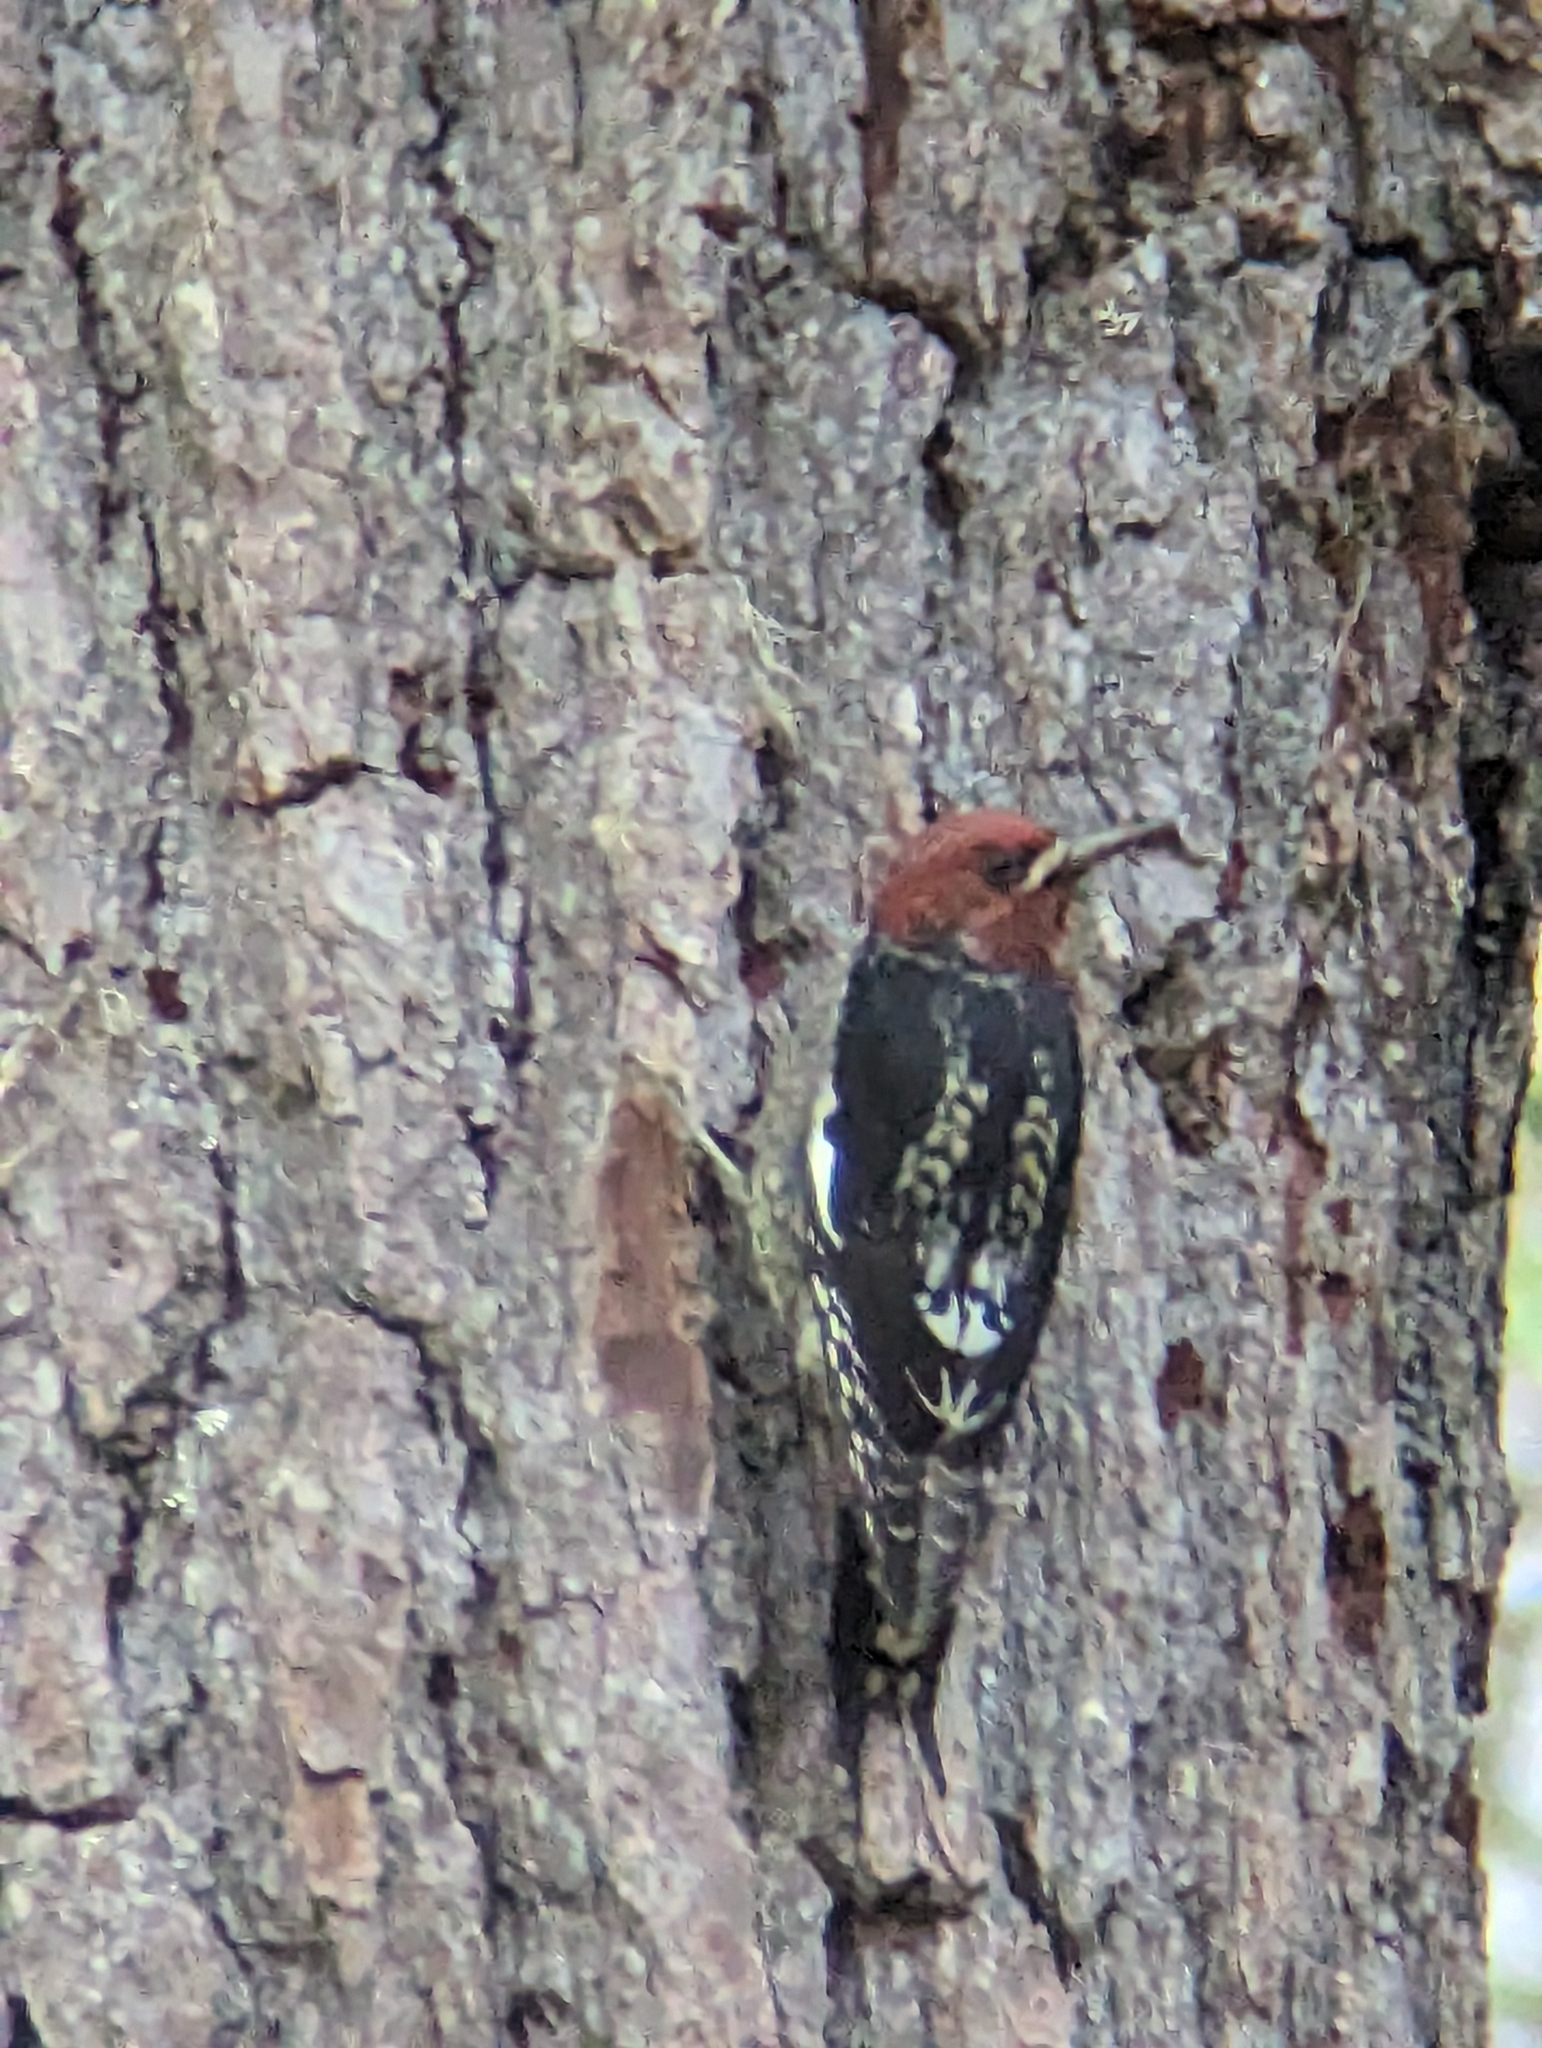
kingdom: Animalia
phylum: Chordata
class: Aves
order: Piciformes
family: Picidae
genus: Sphyrapicus
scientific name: Sphyrapicus ruber
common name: Red-breasted sapsucker
